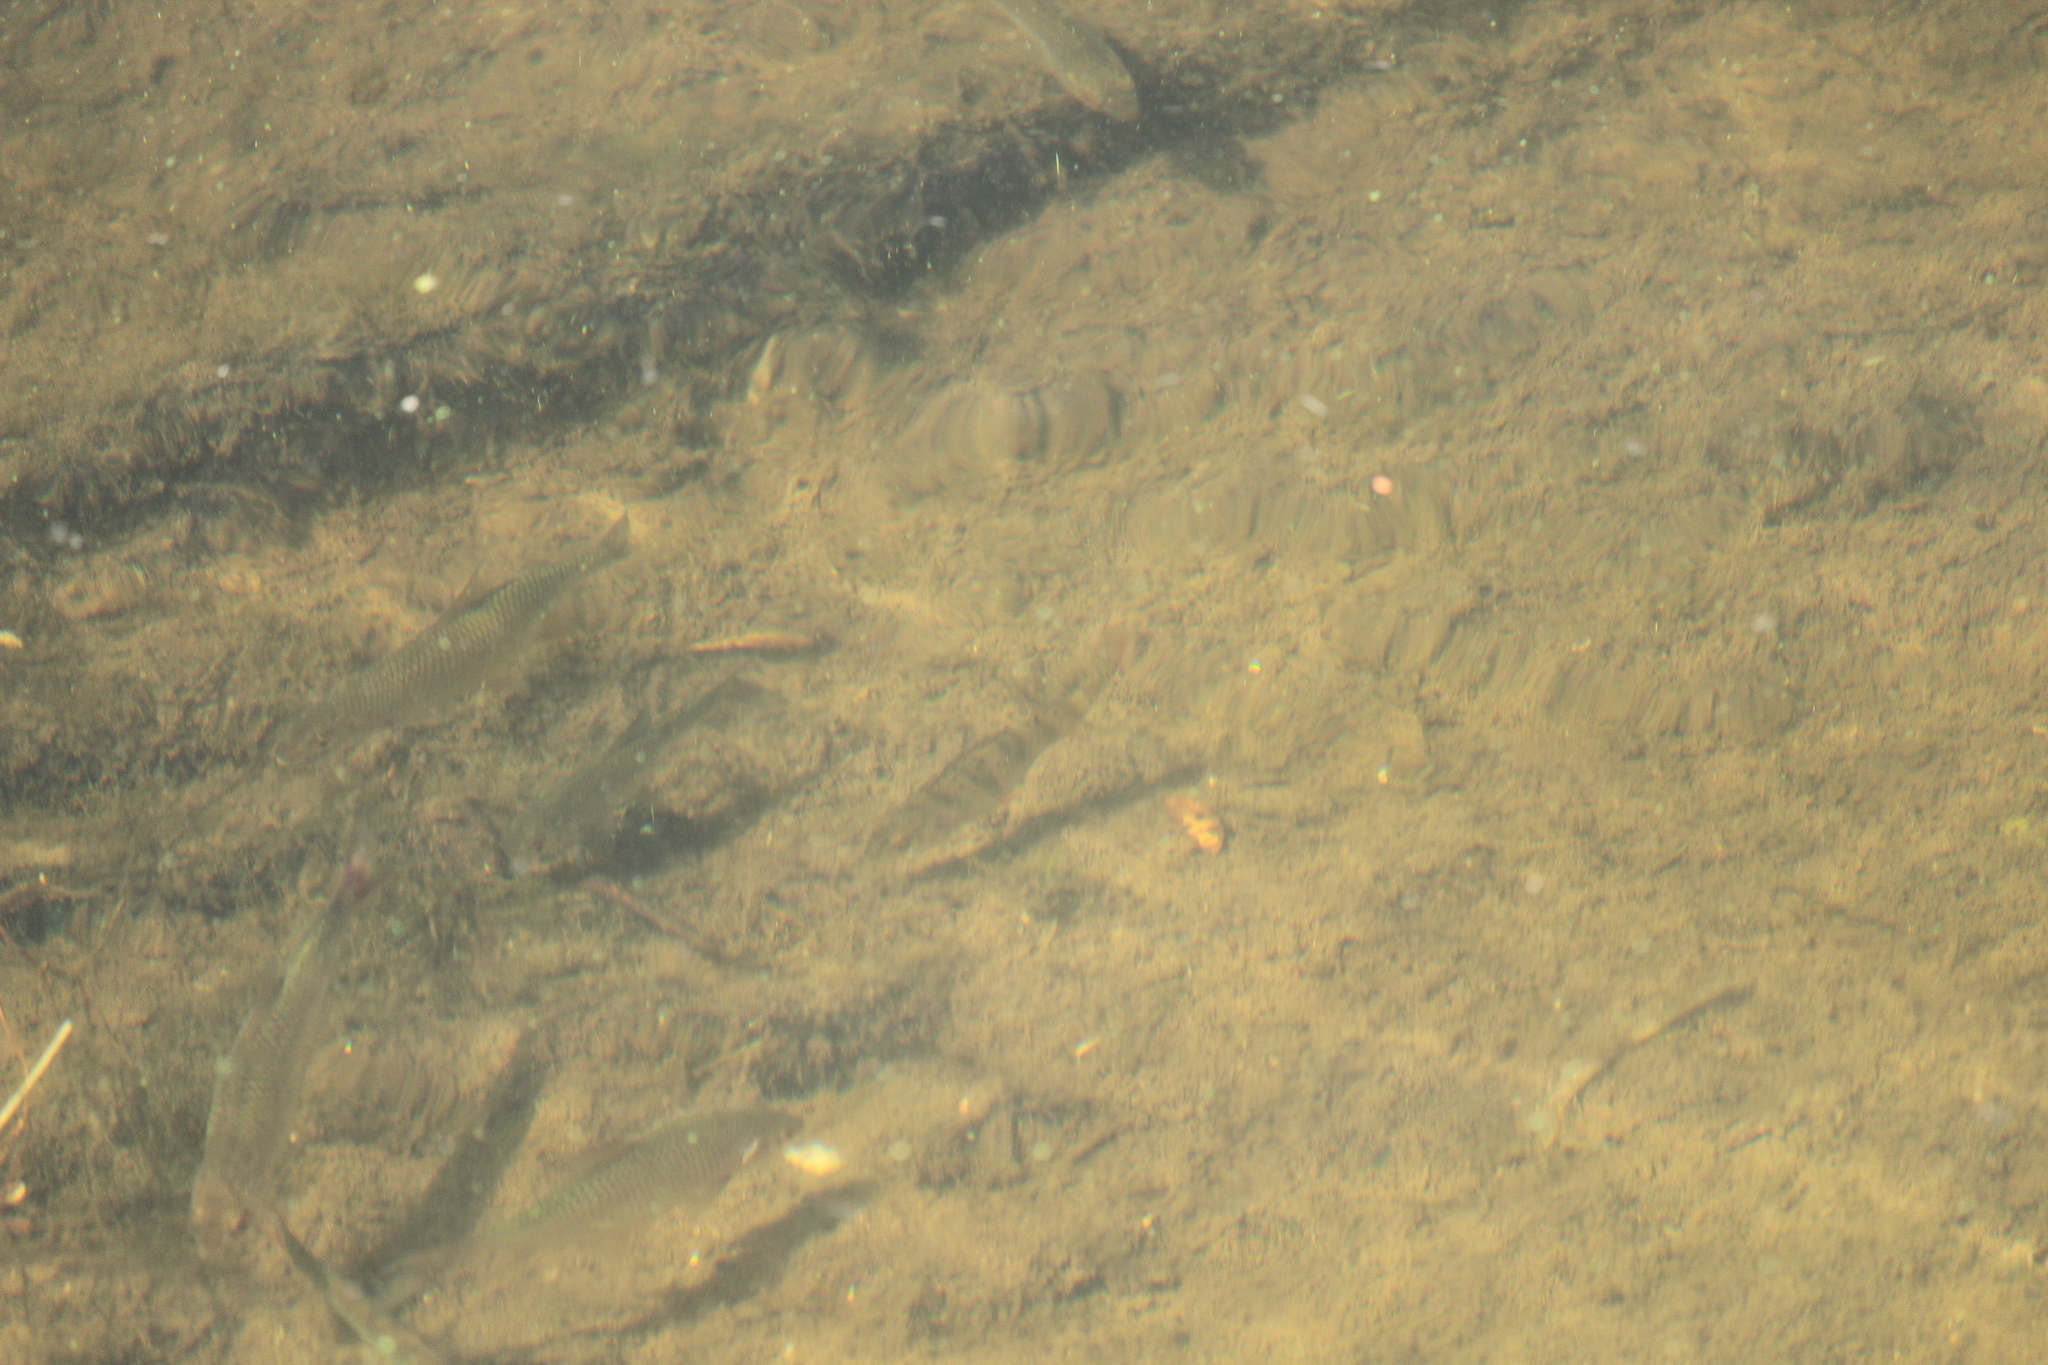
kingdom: Animalia
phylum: Chordata
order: Perciformes
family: Percidae
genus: Perca
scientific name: Perca fluviatilis
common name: Perch
